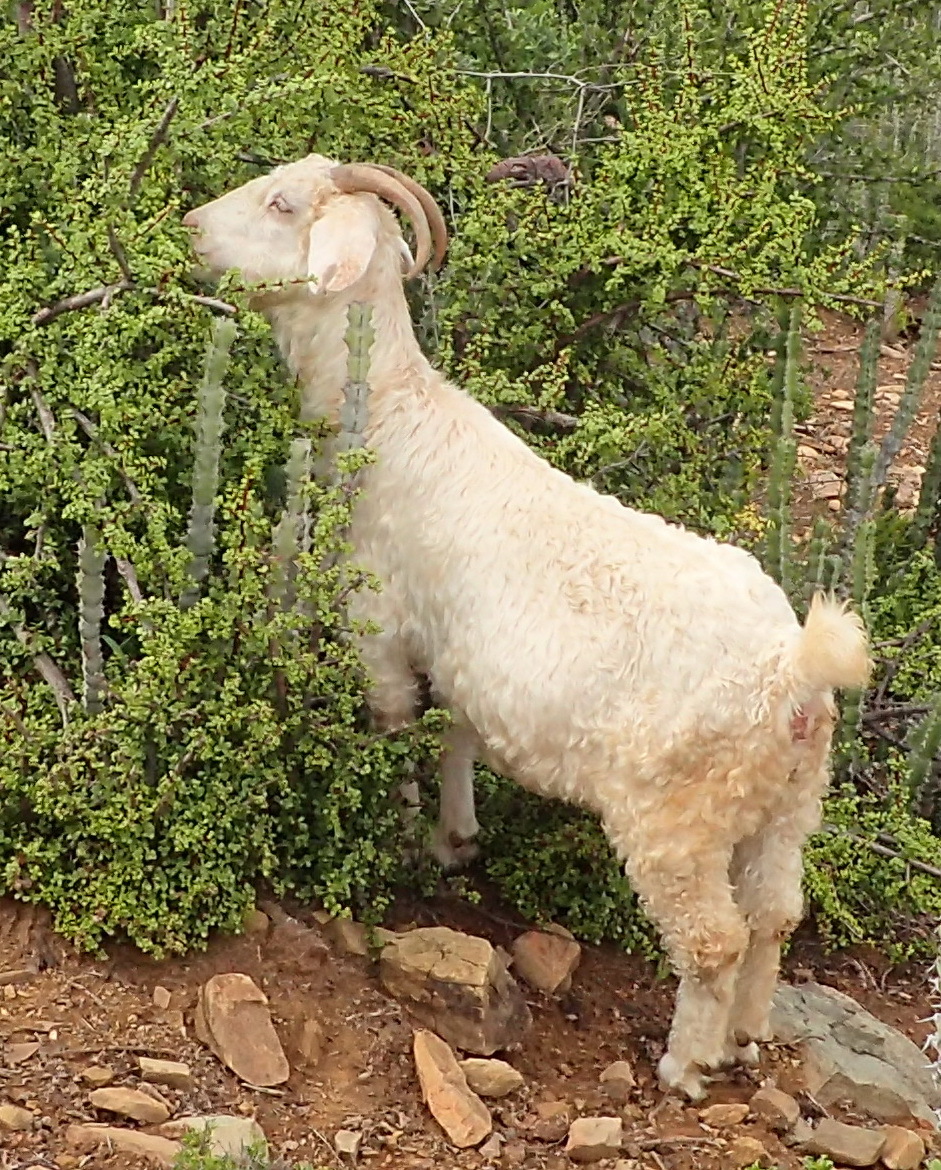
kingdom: Animalia
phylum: Chordata
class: Mammalia
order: Artiodactyla
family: Bovidae
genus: Capra
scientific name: Capra hircus
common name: Domestic goat
